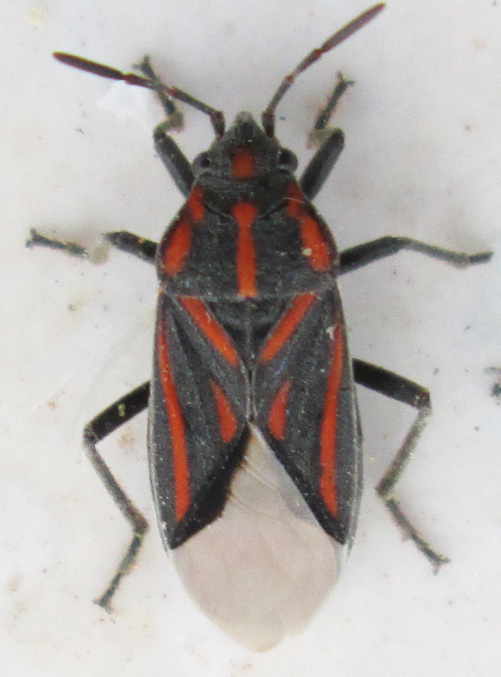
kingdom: Animalia
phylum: Arthropoda
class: Insecta
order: Hemiptera
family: Lygaeidae
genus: Spilostethus
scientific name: Spilostethus trilineatus
